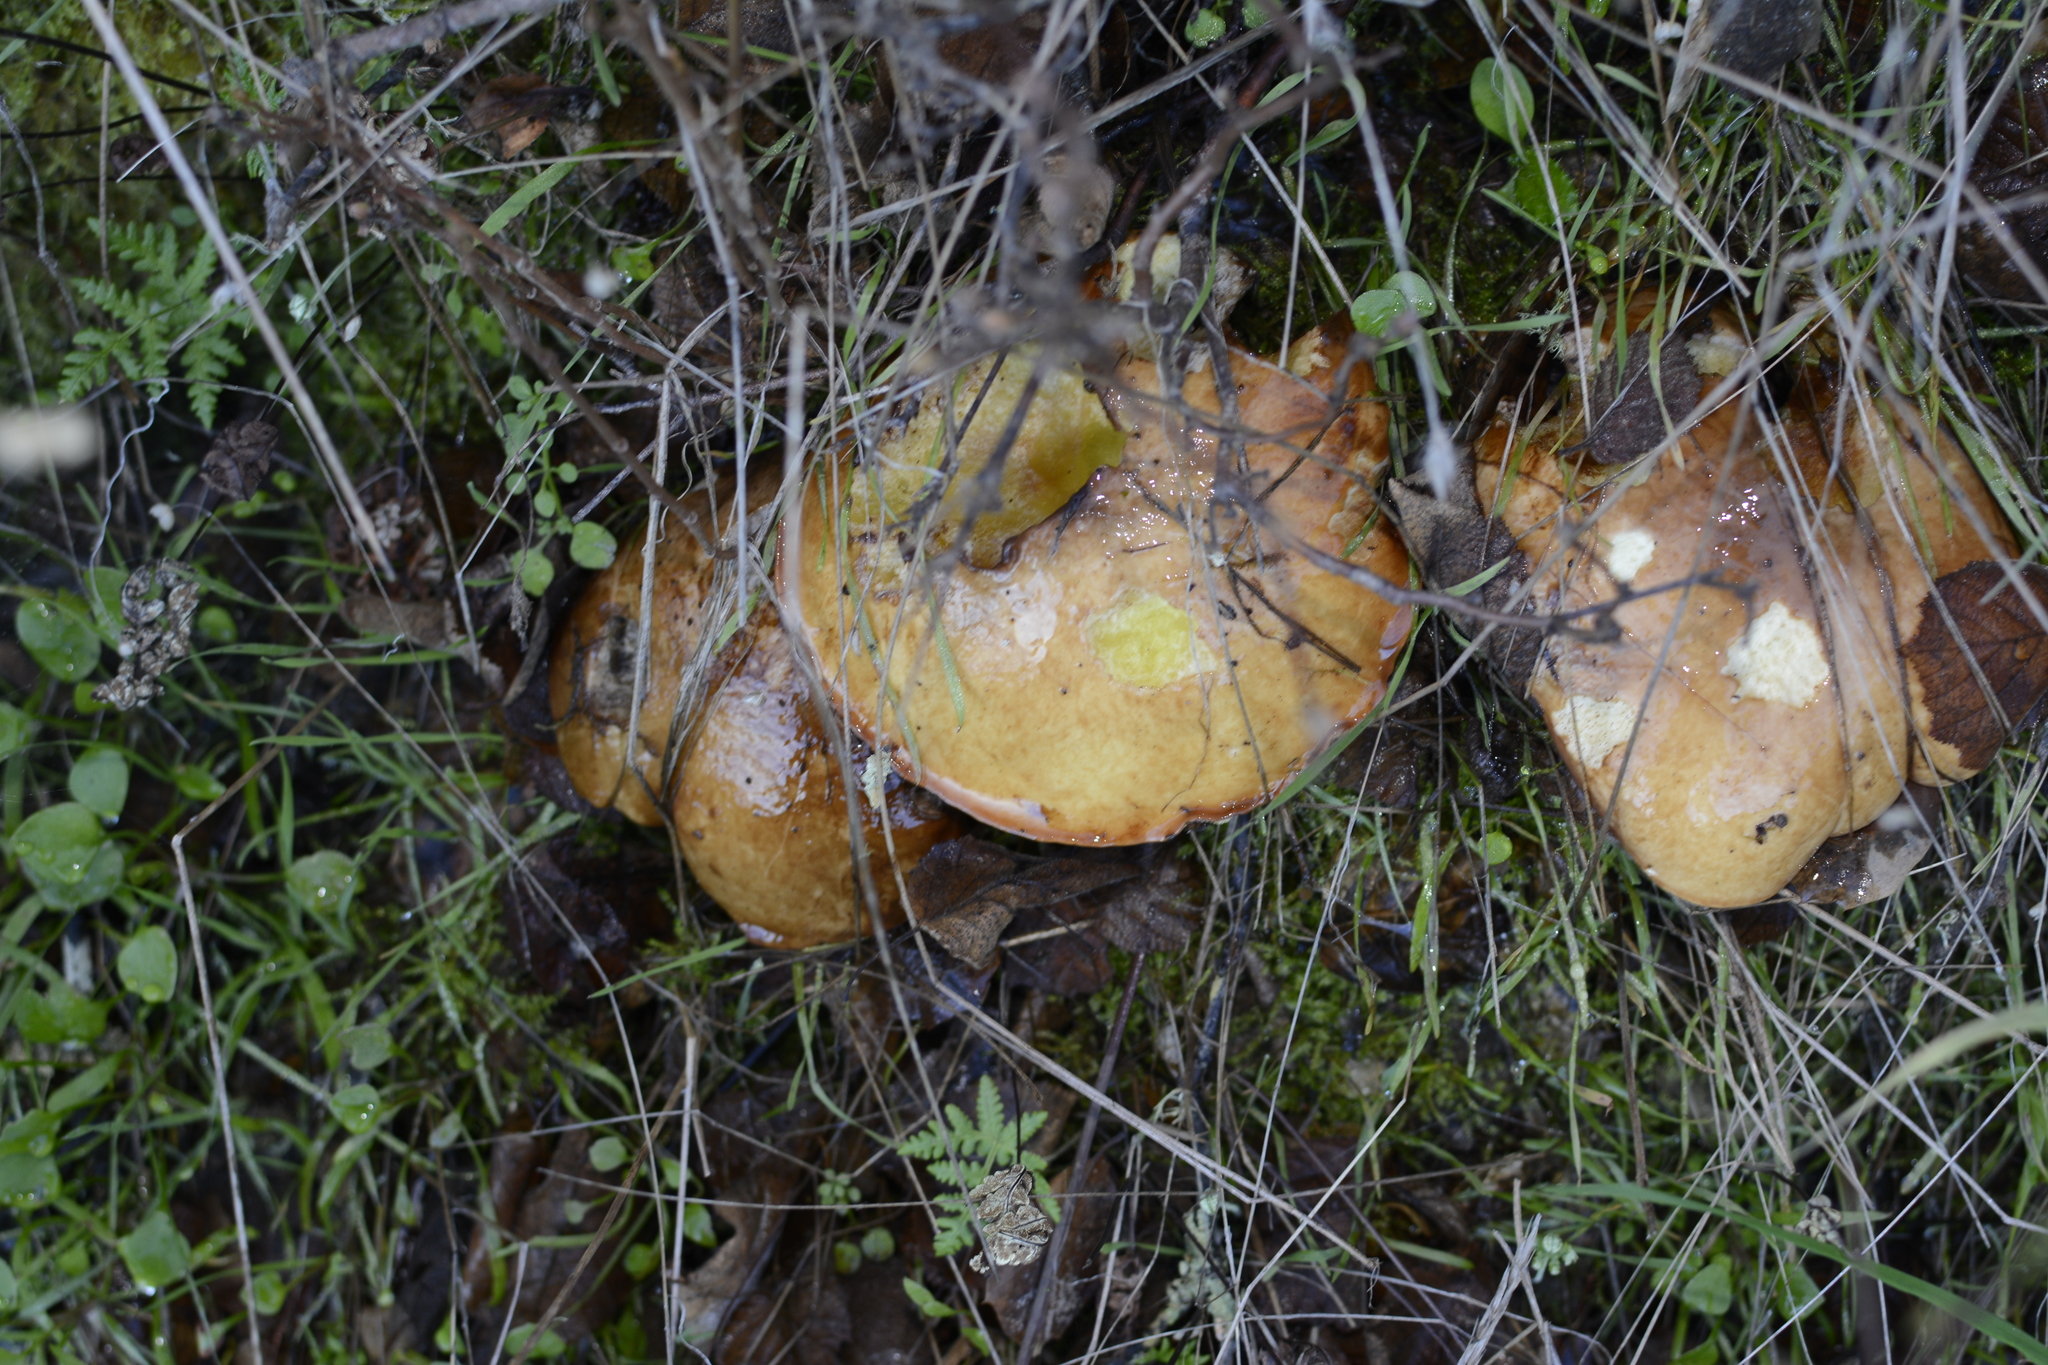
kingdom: Fungi
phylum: Basidiomycota
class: Agaricomycetes
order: Boletales
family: Suillaceae
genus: Suillus
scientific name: Suillus pungens
